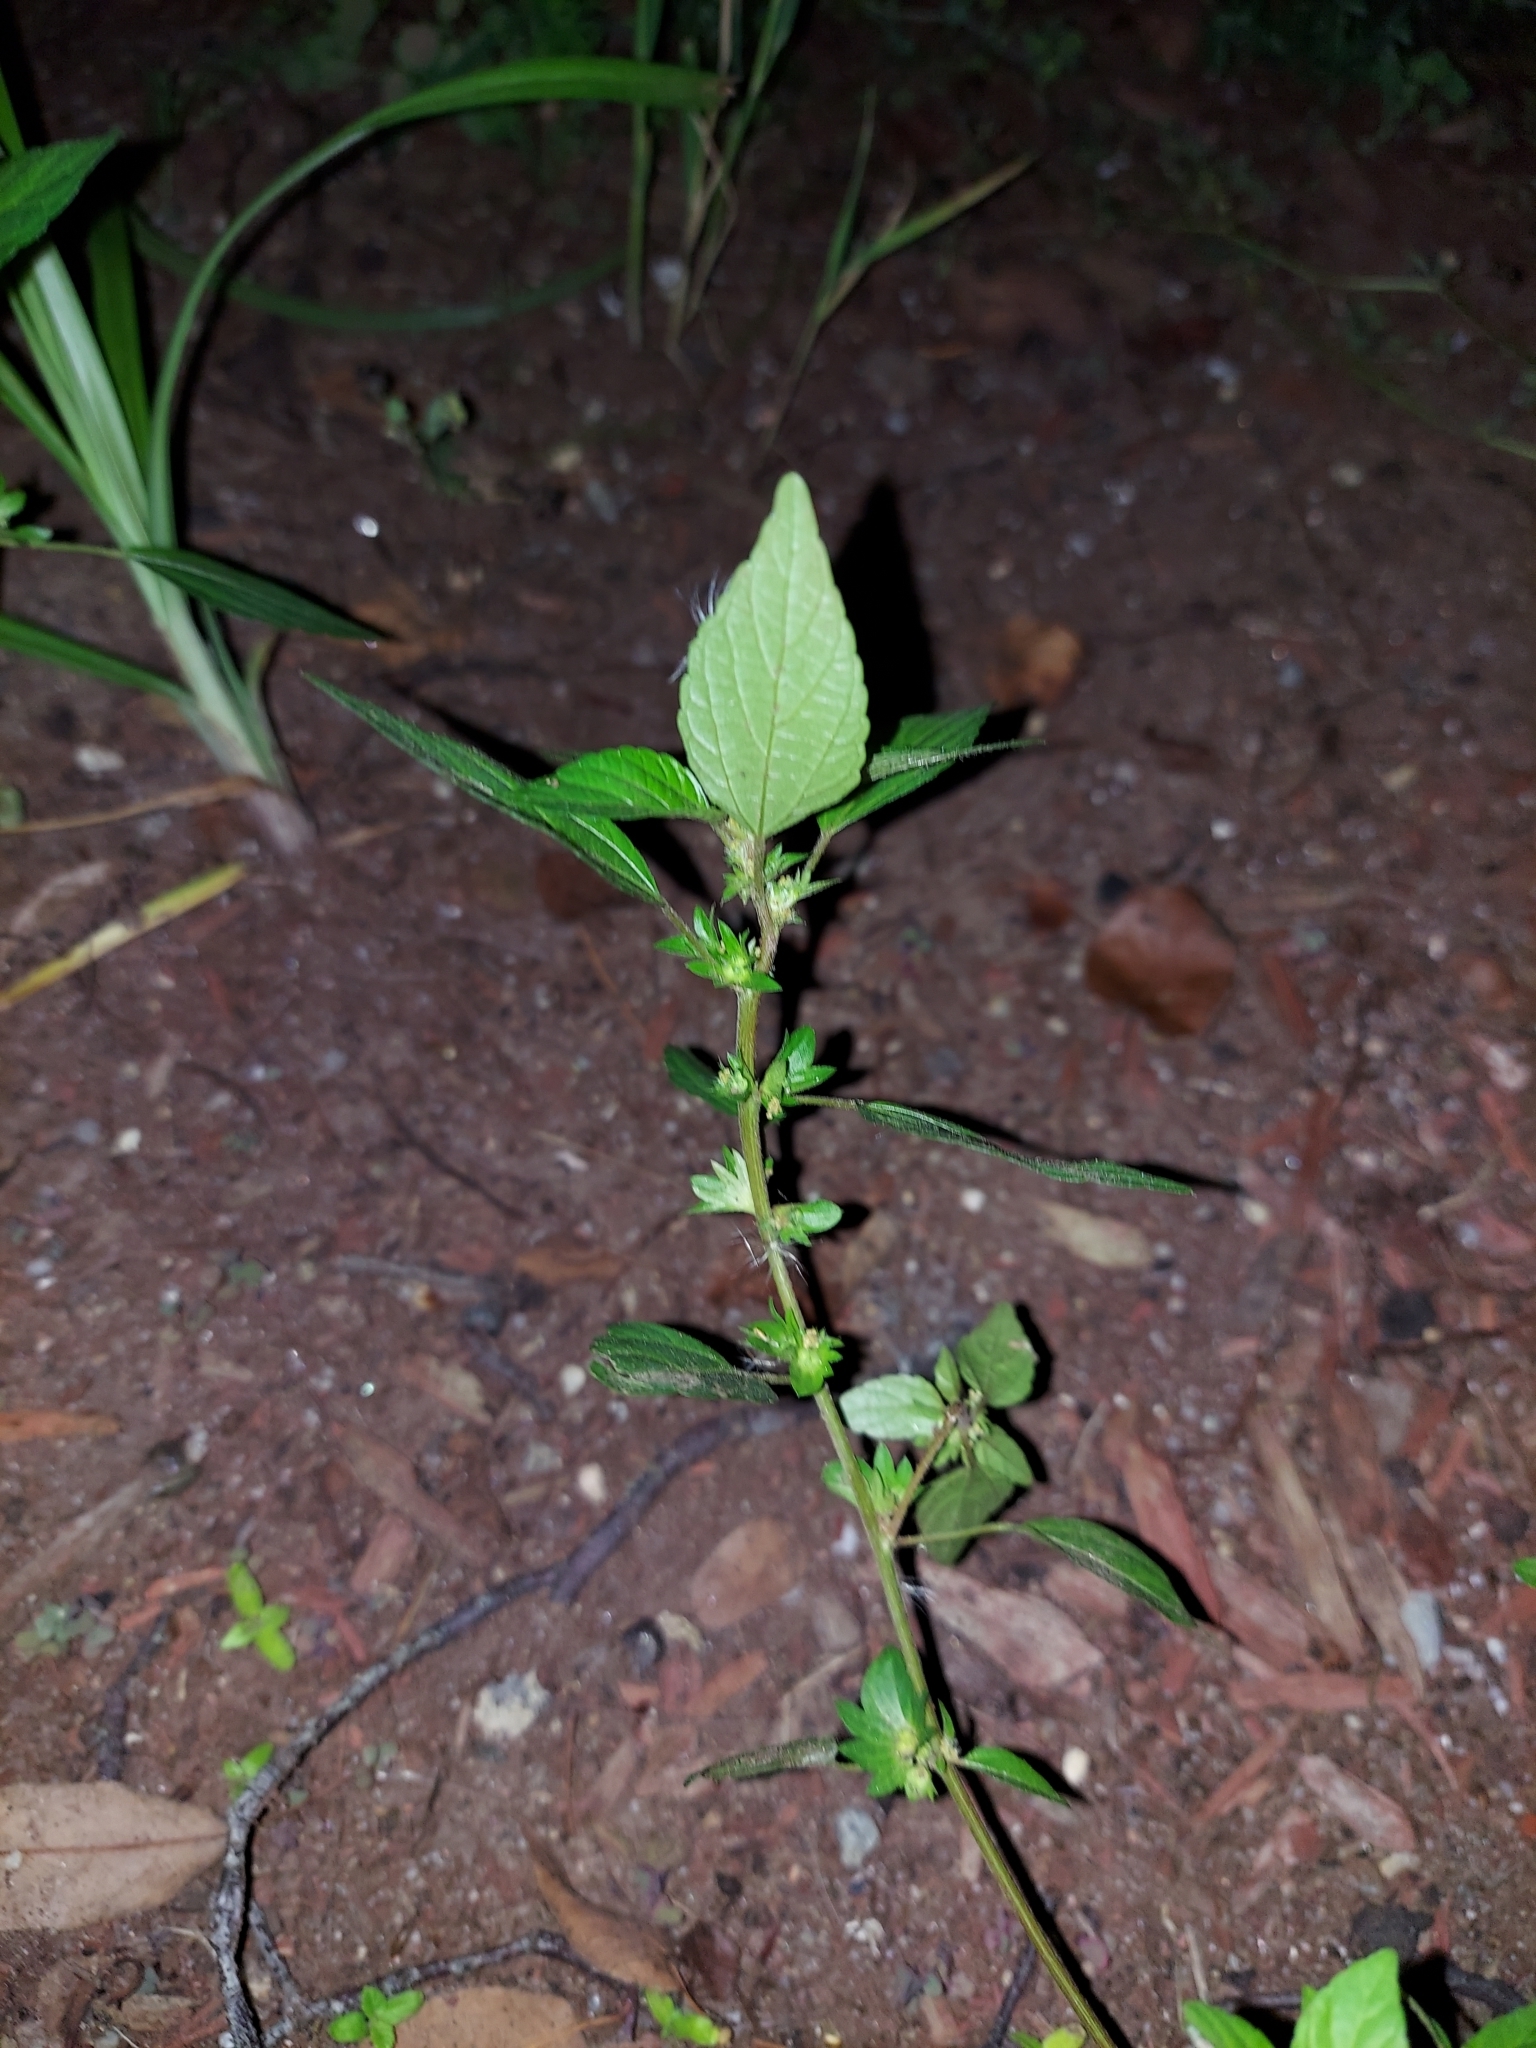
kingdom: Plantae
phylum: Tracheophyta
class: Magnoliopsida
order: Malpighiales
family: Euphorbiaceae
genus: Acalypha
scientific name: Acalypha rhomboidea
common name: Rhombic copperleaf
